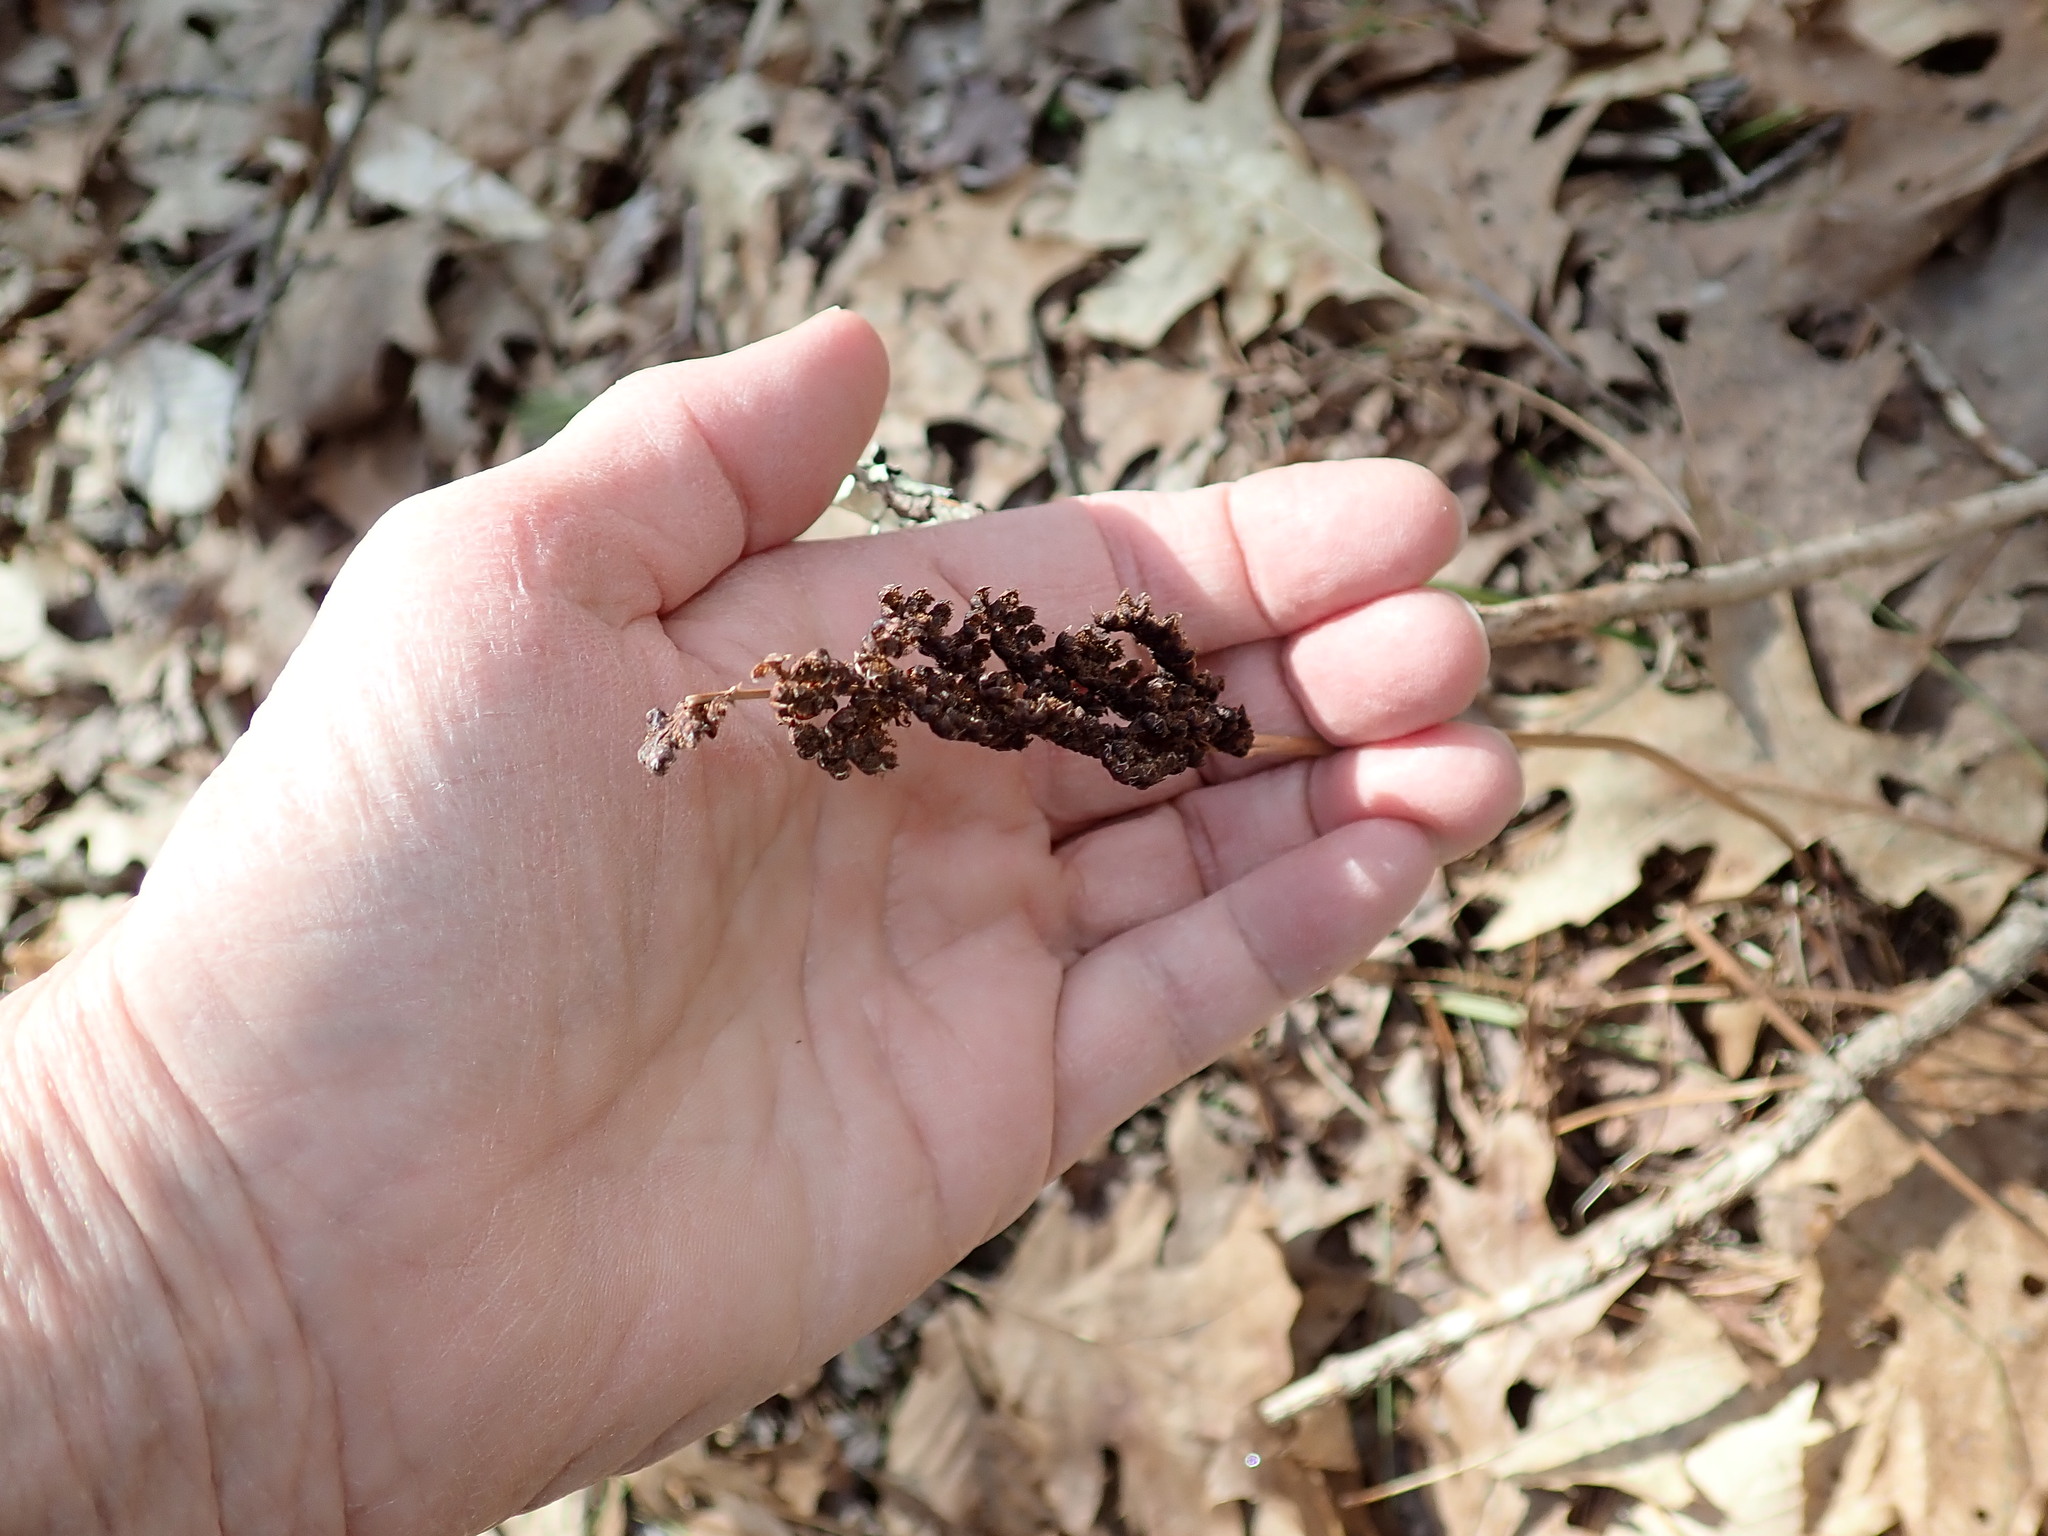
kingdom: Plantae
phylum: Tracheophyta
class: Polypodiopsida
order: Polypodiales
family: Onocleaceae
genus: Onoclea
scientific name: Onoclea sensibilis
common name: Sensitive fern
